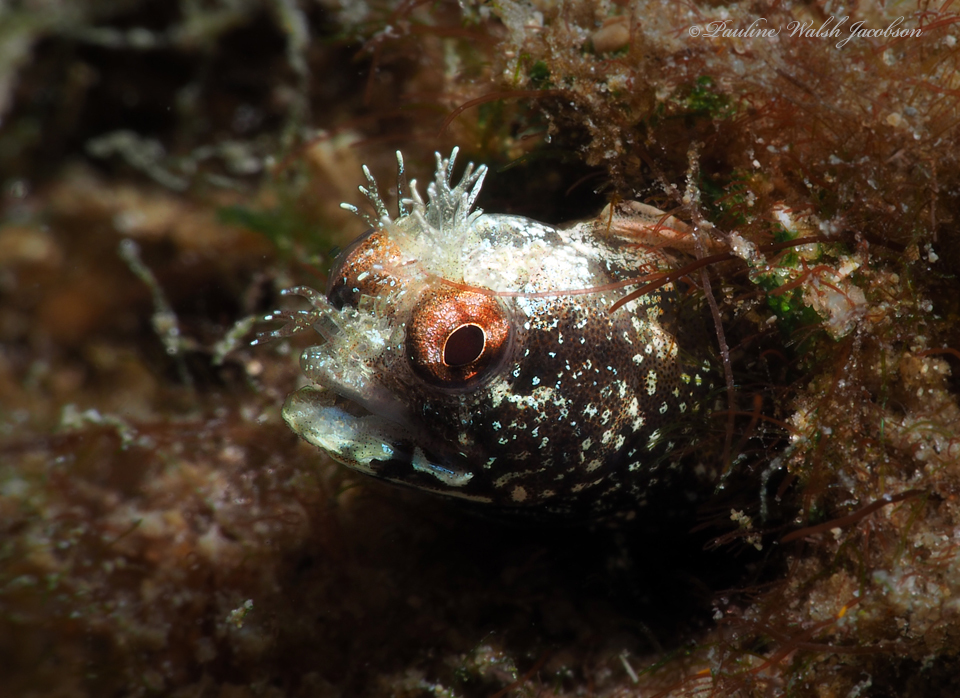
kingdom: Animalia
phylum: Chordata
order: Perciformes
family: Chaenopsidae
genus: Acanthemblemaria
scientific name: Acanthemblemaria aspera
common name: Roughhead blenny
